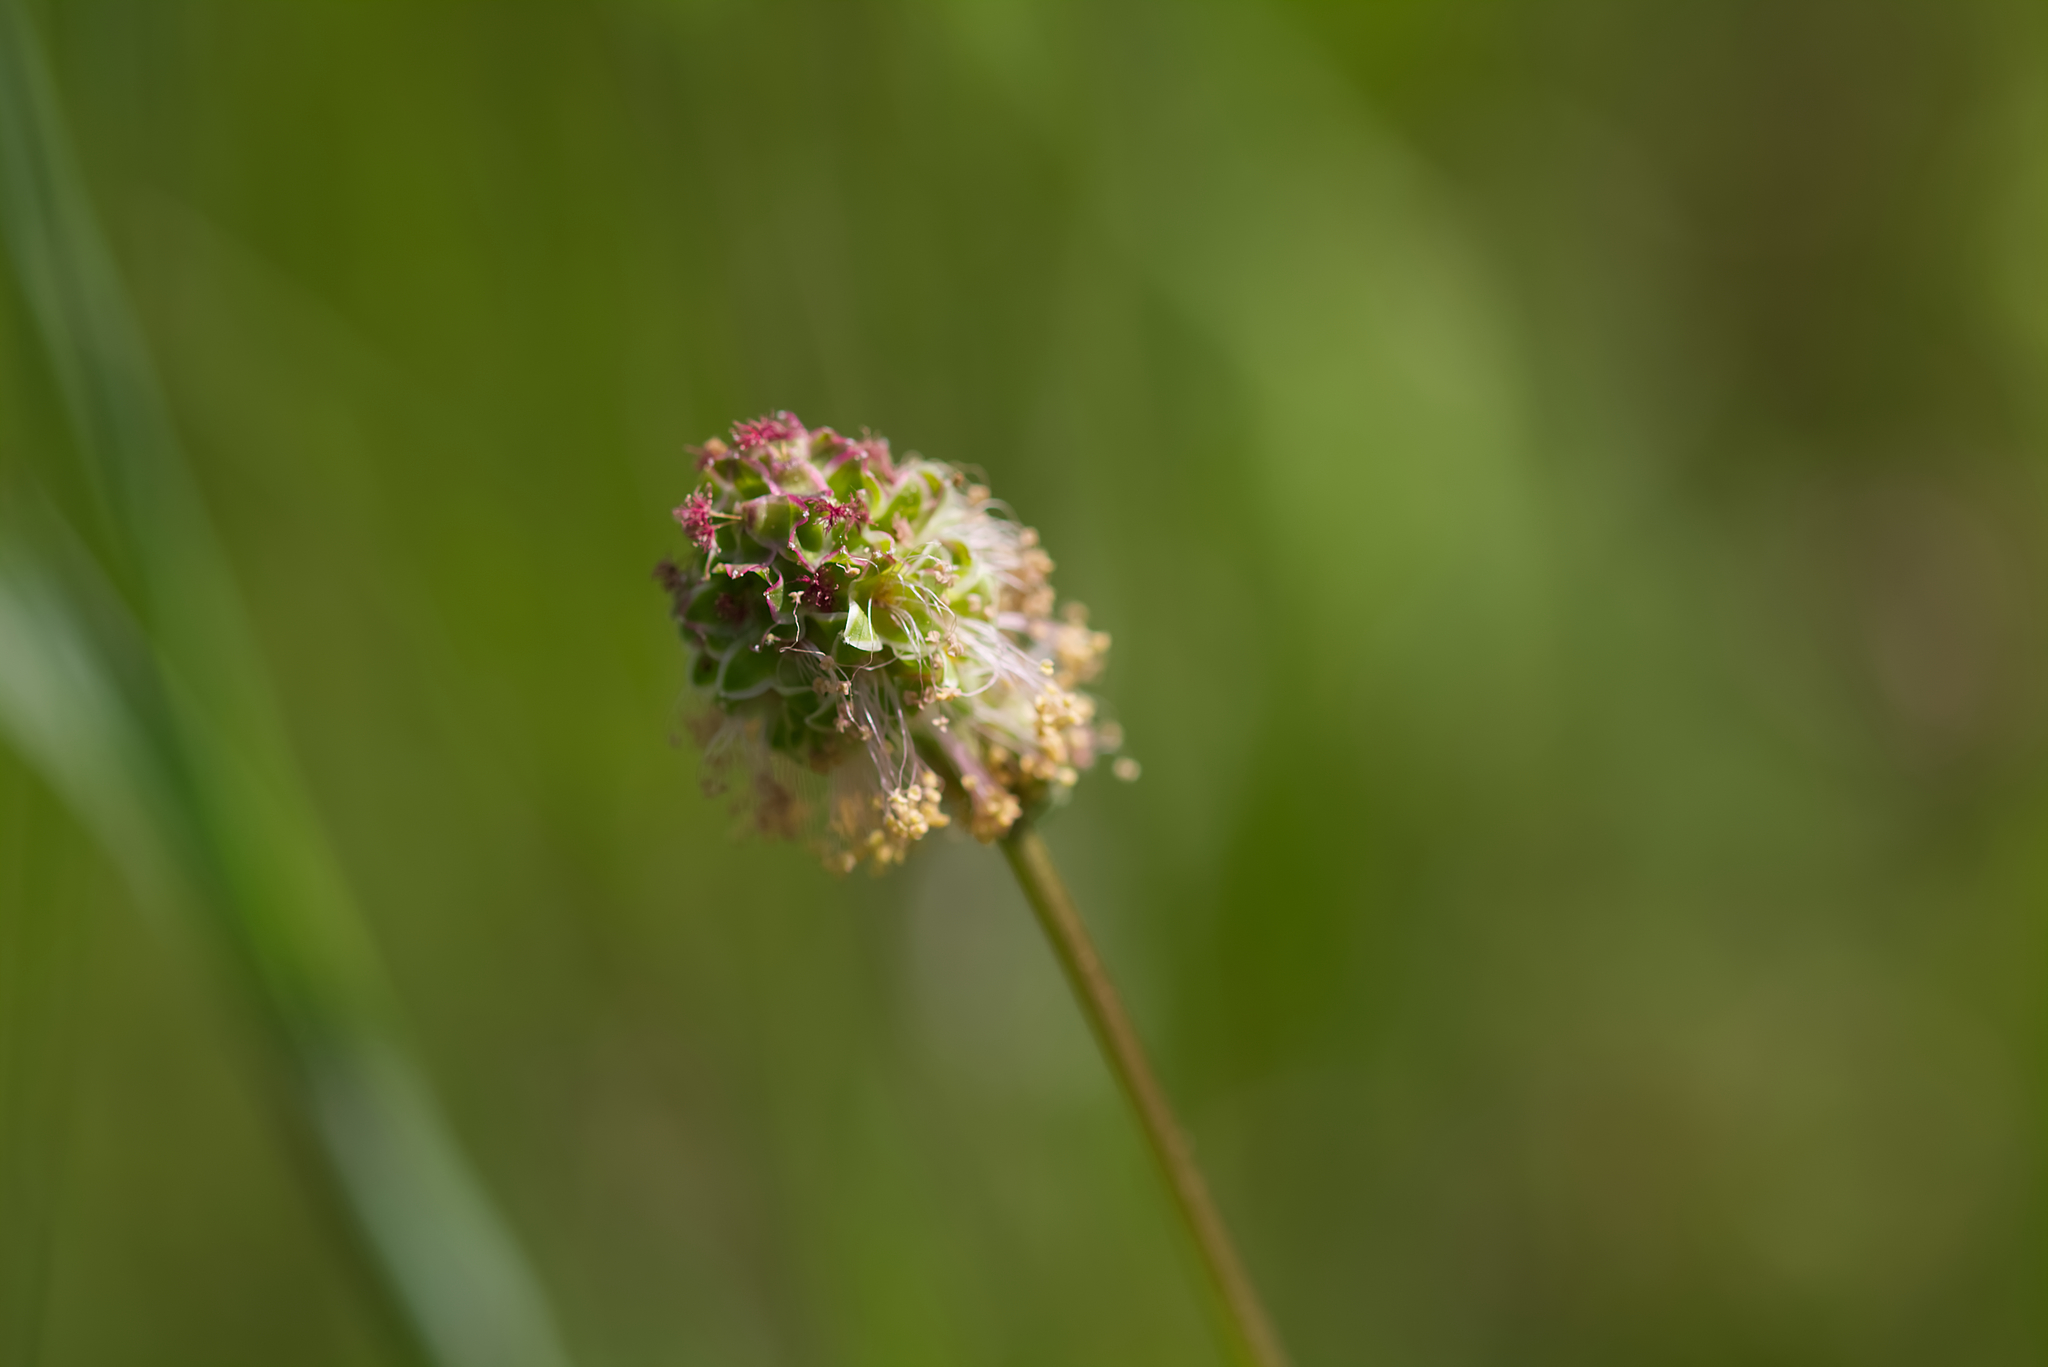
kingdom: Plantae
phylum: Tracheophyta
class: Magnoliopsida
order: Rosales
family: Rosaceae
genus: Poterium
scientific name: Poterium sanguisorba
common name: Salad burnet
